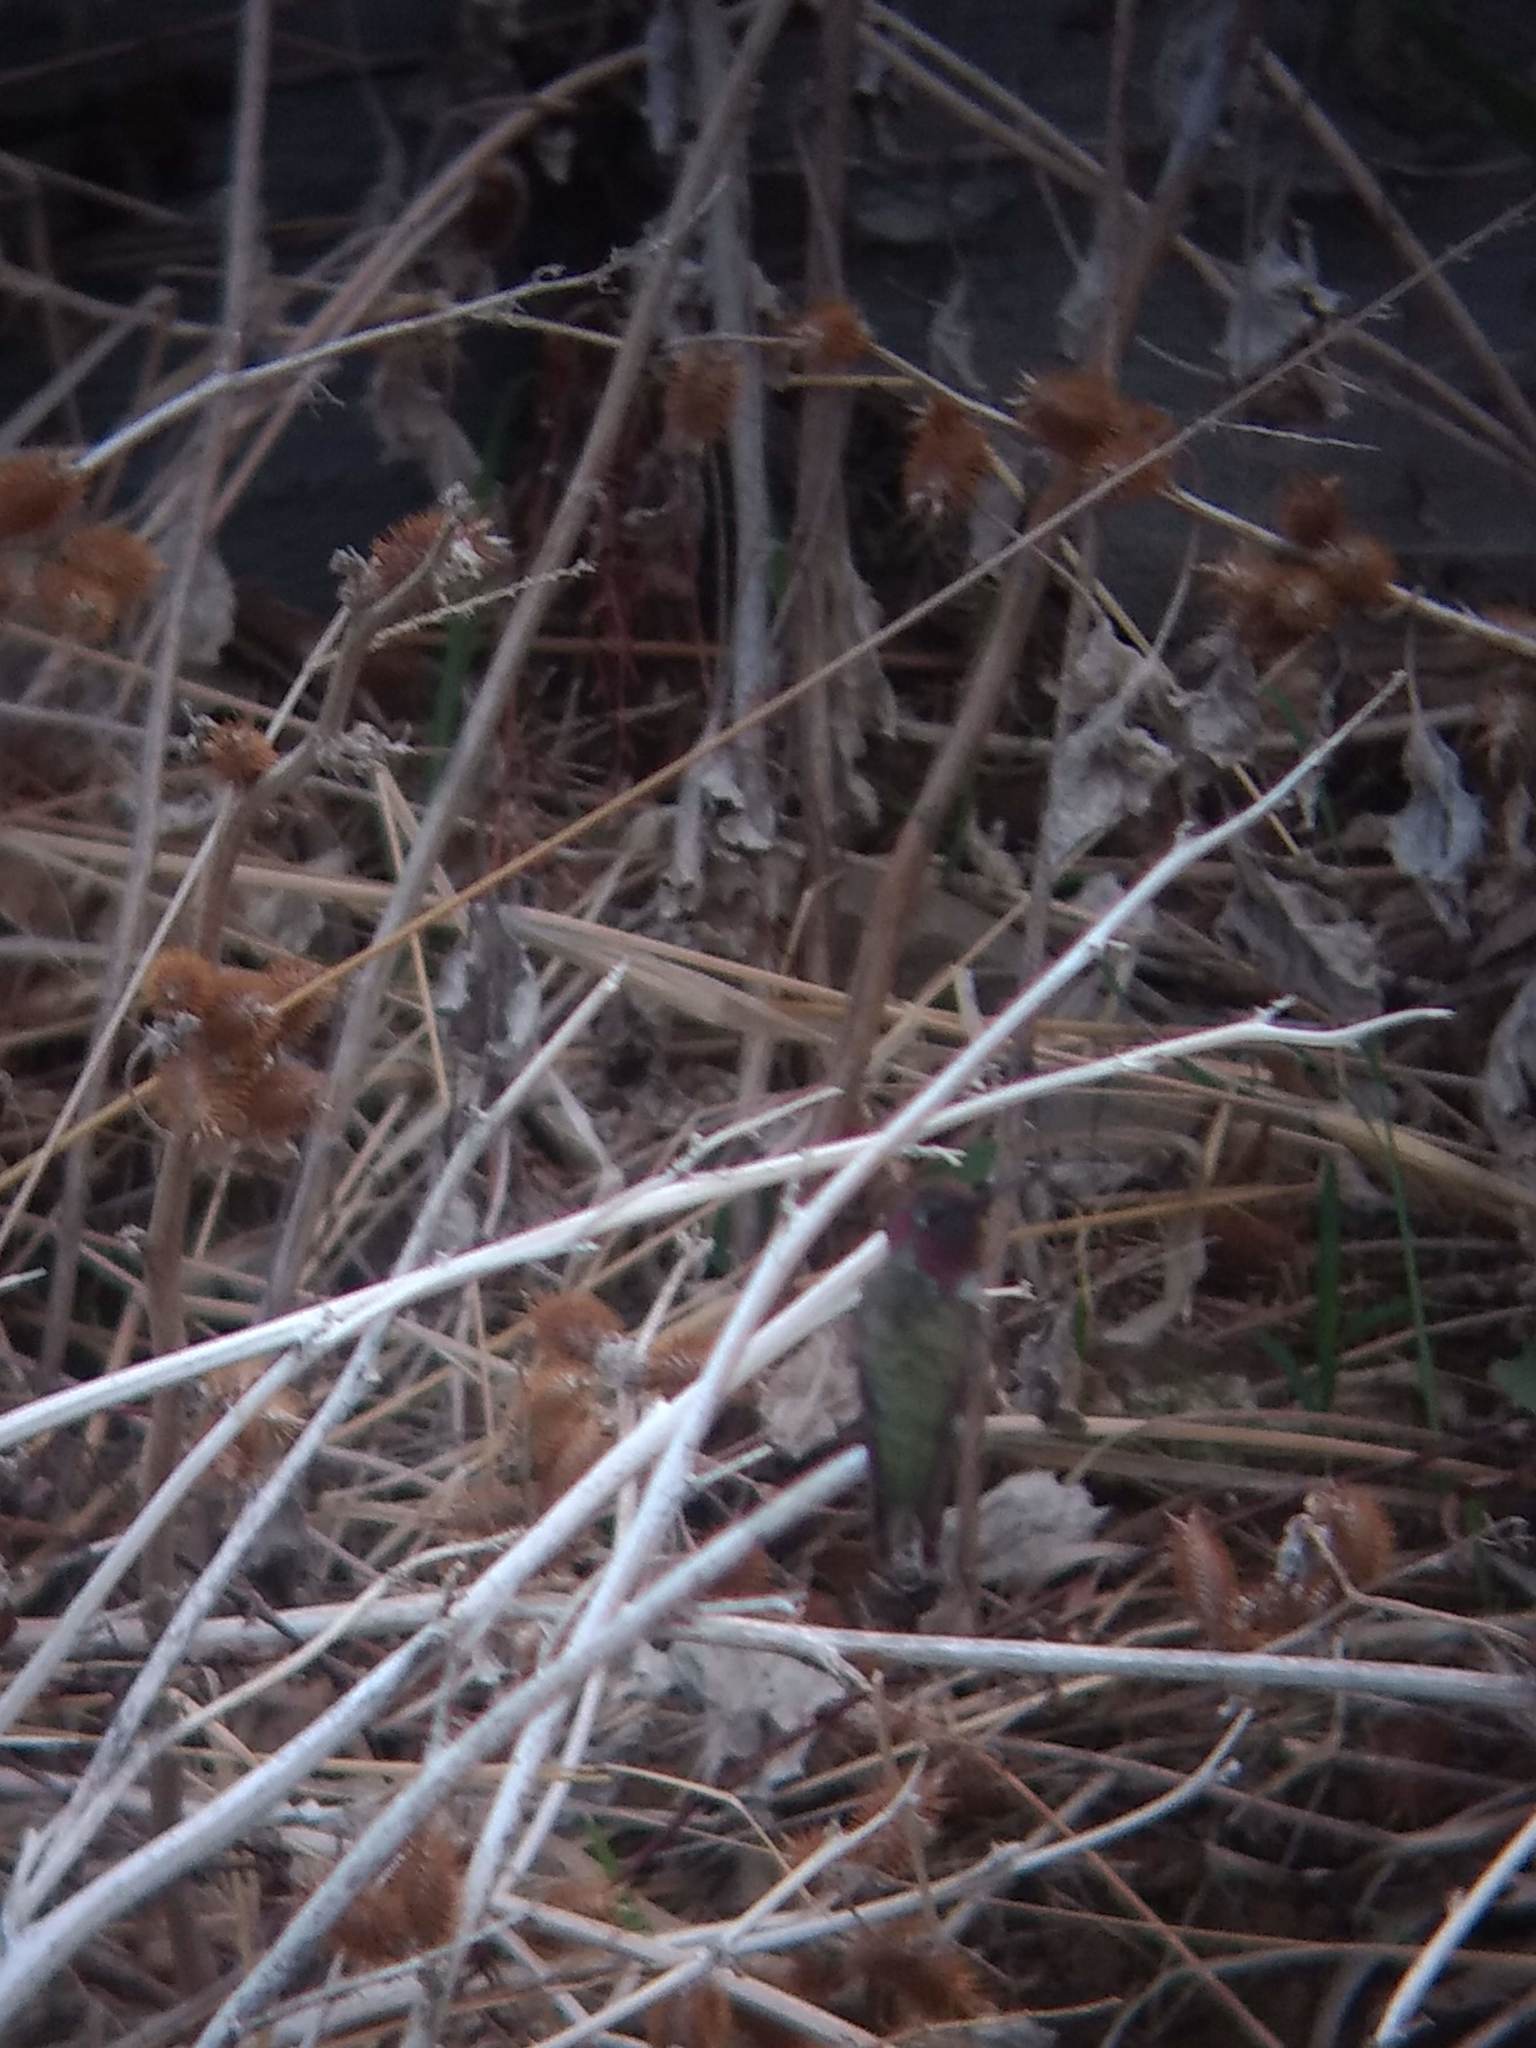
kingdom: Animalia
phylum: Chordata
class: Aves
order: Apodiformes
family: Trochilidae
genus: Calypte
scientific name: Calypte anna
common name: Anna's hummingbird
